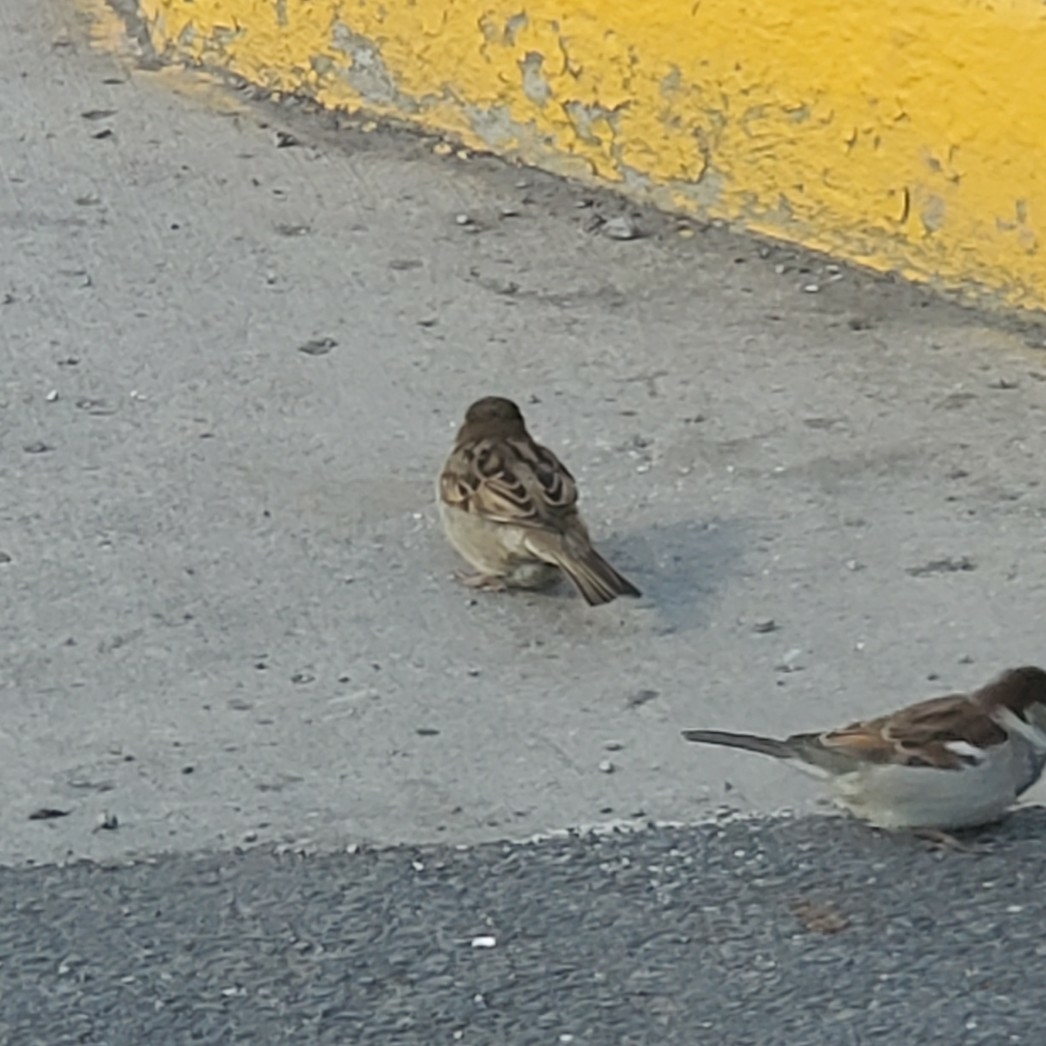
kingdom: Animalia
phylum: Chordata
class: Aves
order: Passeriformes
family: Passeridae
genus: Passer
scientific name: Passer domesticus
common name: House sparrow
